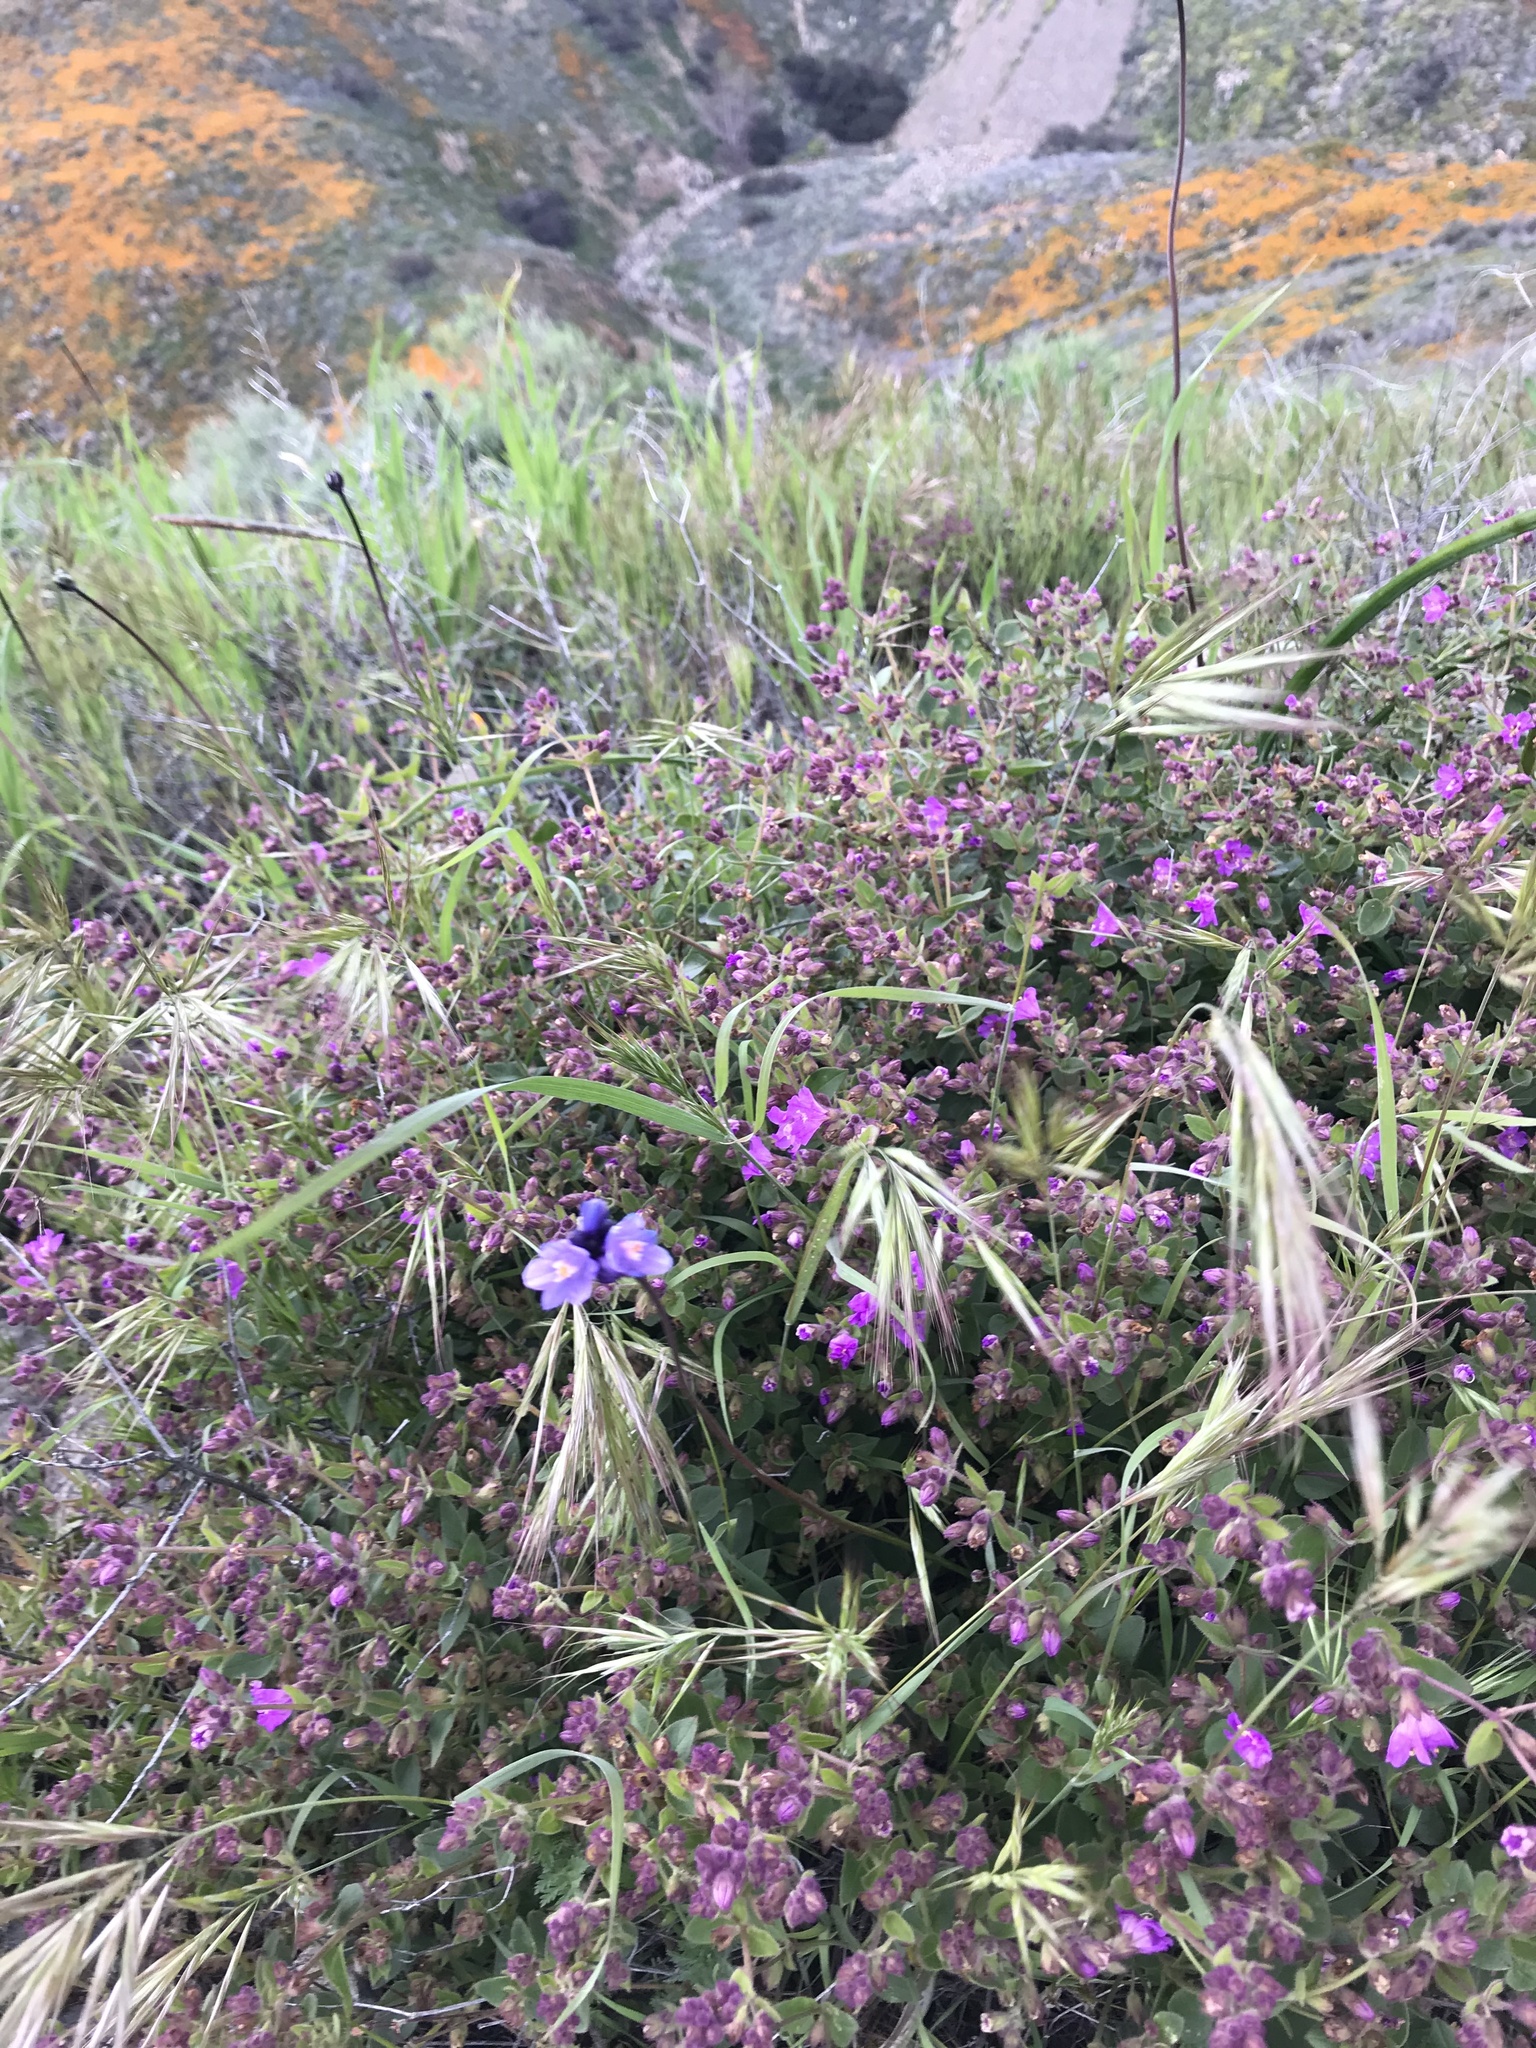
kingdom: Plantae
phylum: Tracheophyta
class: Liliopsida
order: Asparagales
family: Asparagaceae
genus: Dipterostemon
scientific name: Dipterostemon capitatus
